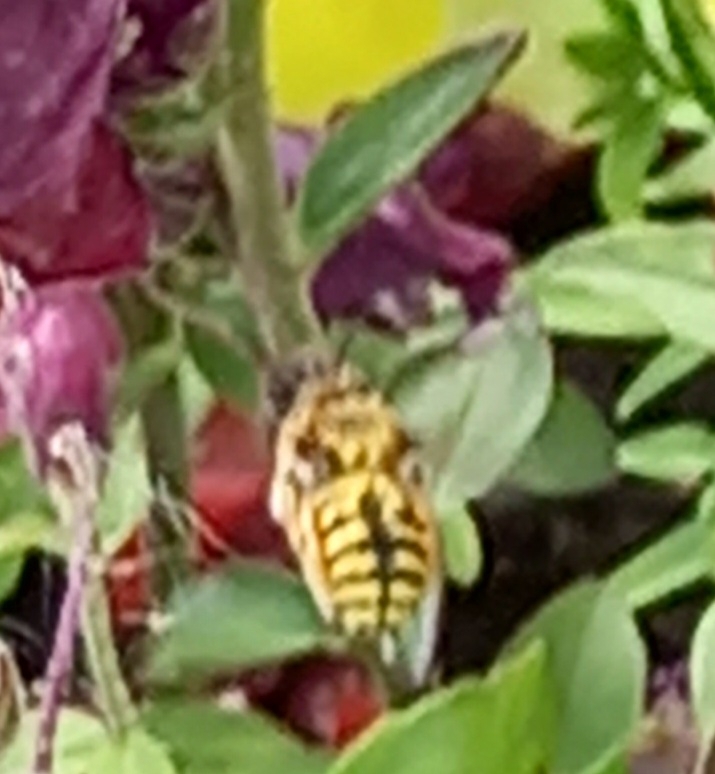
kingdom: Animalia
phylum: Arthropoda
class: Insecta
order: Hymenoptera
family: Megachilidae
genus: Anthidium
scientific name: Anthidium manicatum
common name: Wool carder bee
